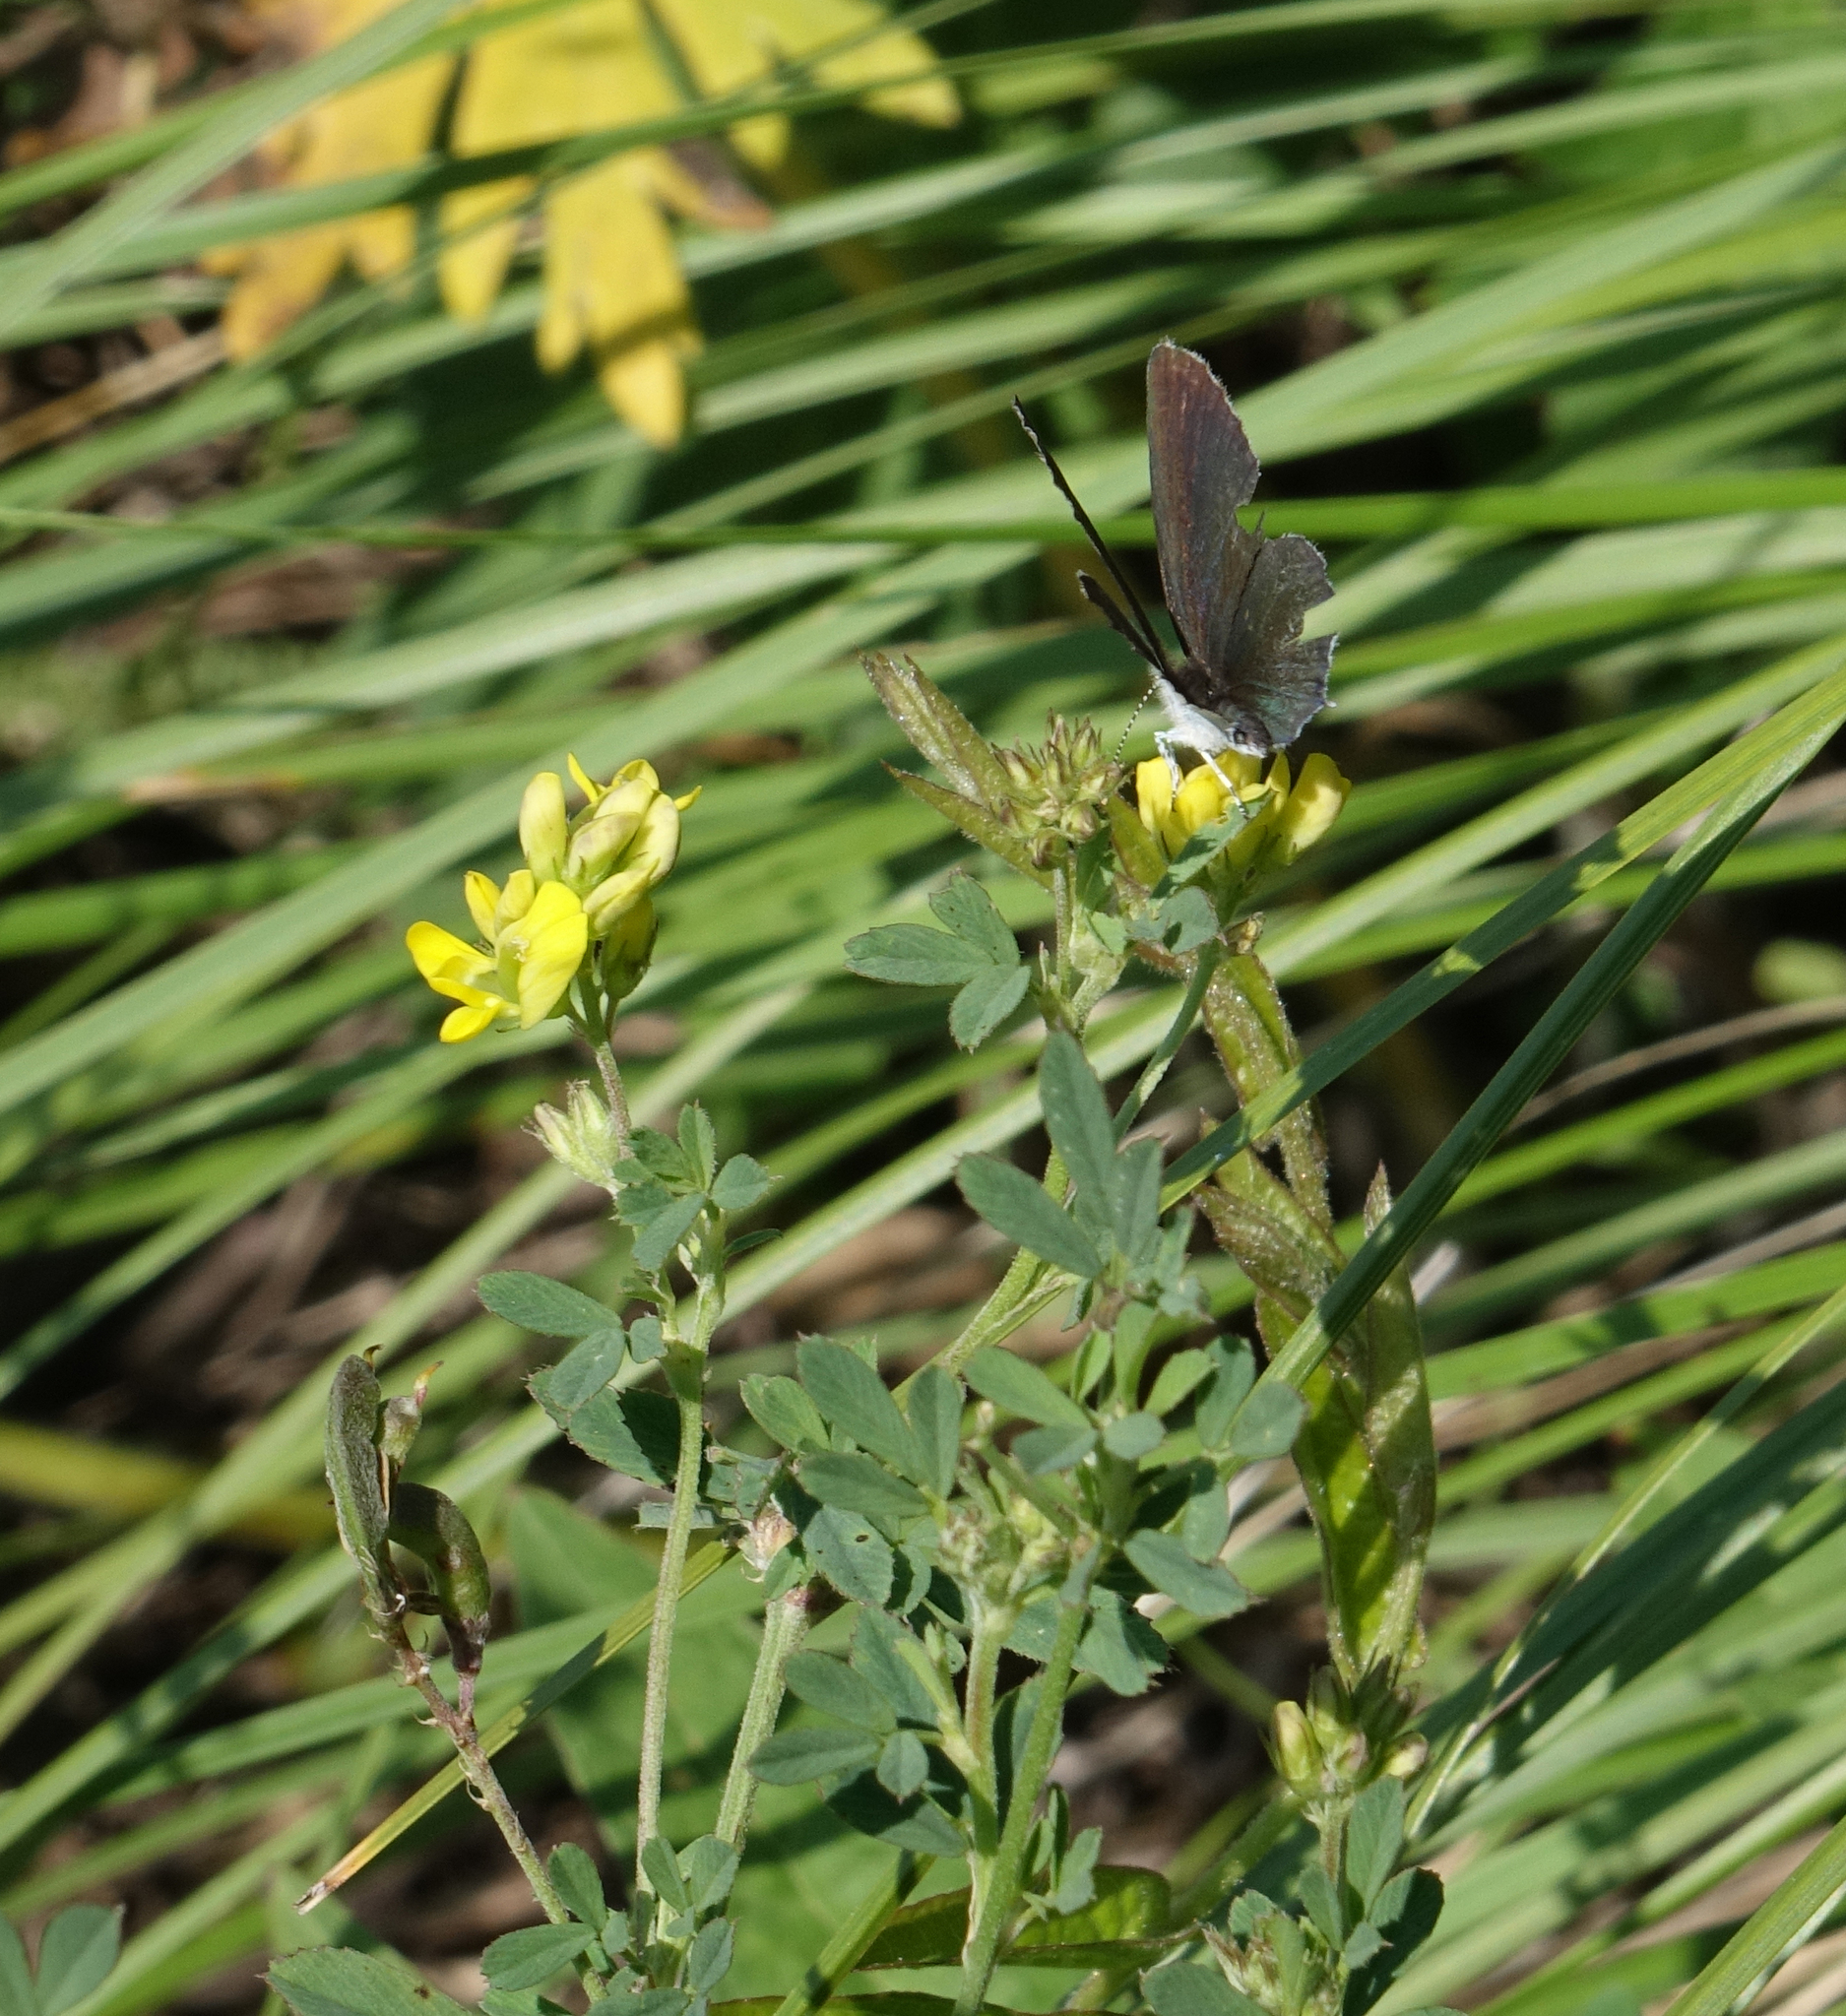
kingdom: Animalia
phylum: Arthropoda
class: Insecta
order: Lepidoptera
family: Lycaenidae
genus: Elkalyce
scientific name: Elkalyce argiades
